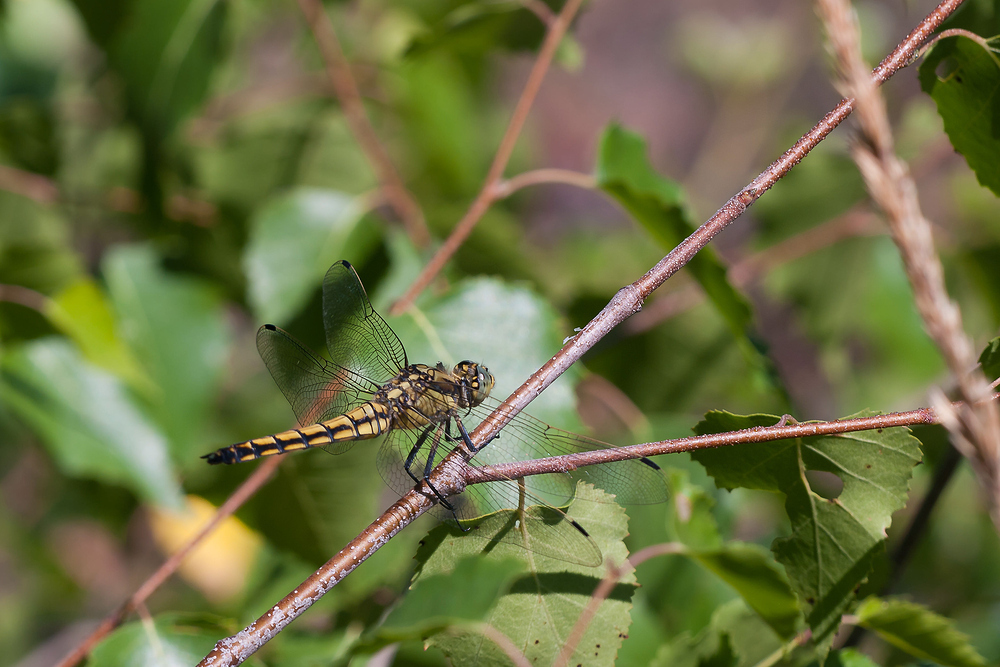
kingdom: Animalia
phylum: Arthropoda
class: Insecta
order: Odonata
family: Libellulidae
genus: Orthetrum
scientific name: Orthetrum cancellatum
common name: Black-tailed skimmer
